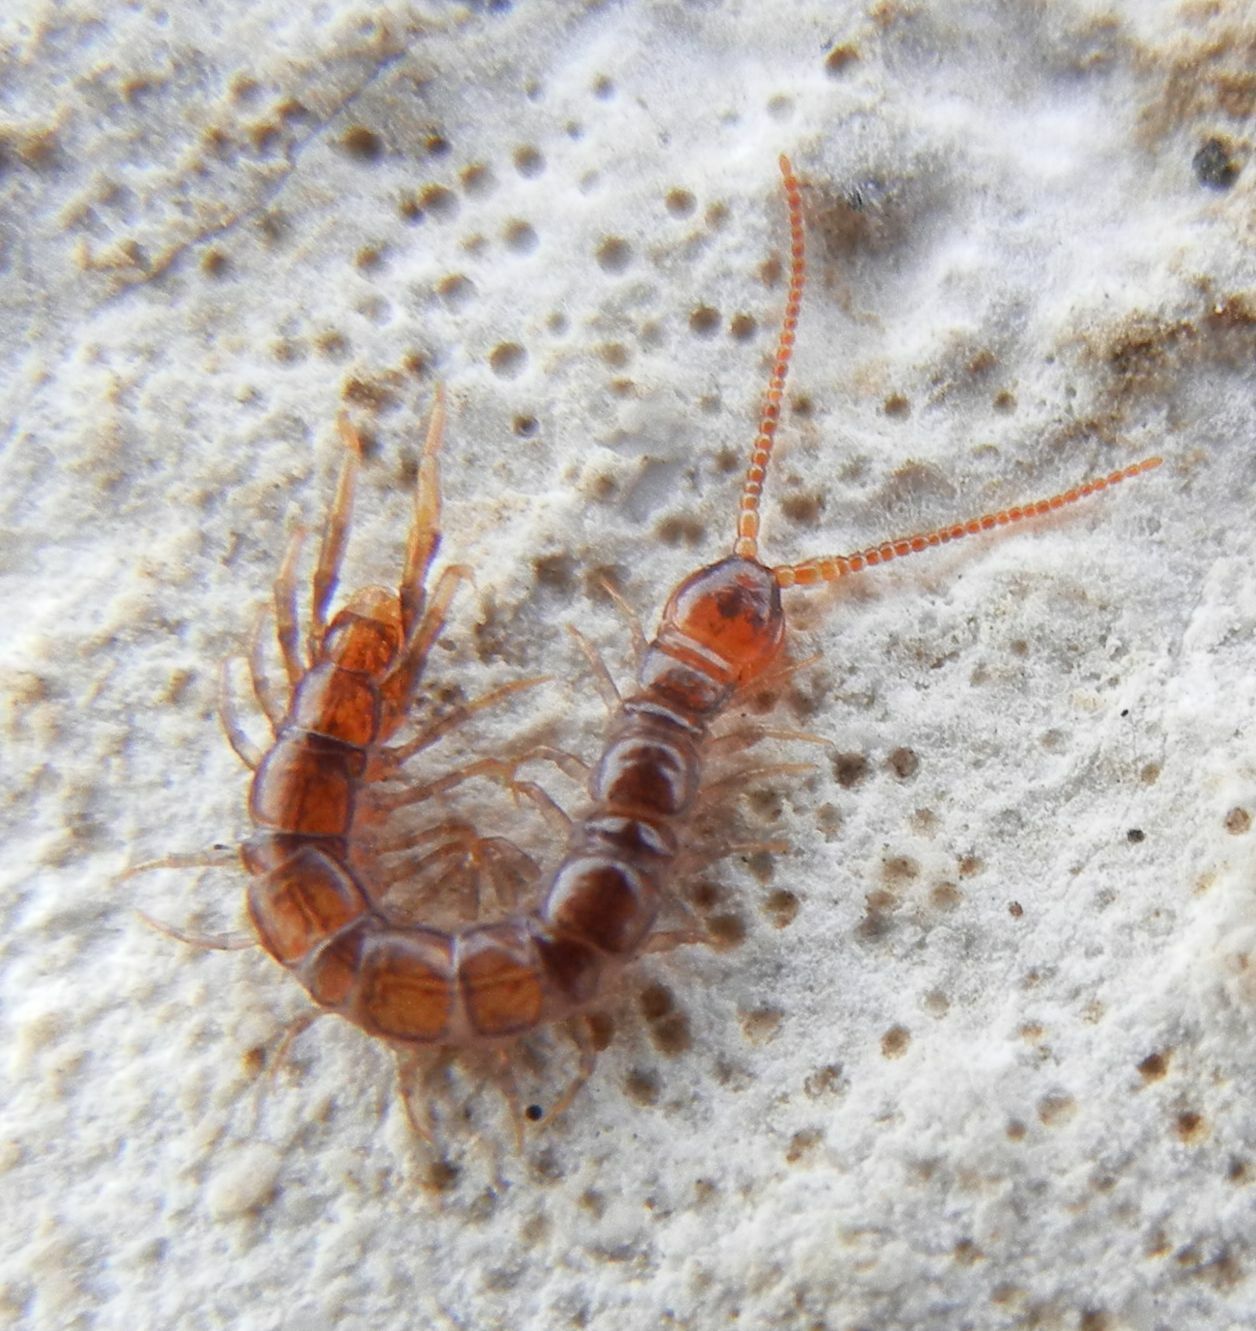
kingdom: Animalia
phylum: Arthropoda
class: Chilopoda
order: Lithobiomorpha
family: Henicopidae
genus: Lamyctes
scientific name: Lamyctes emarginatus
